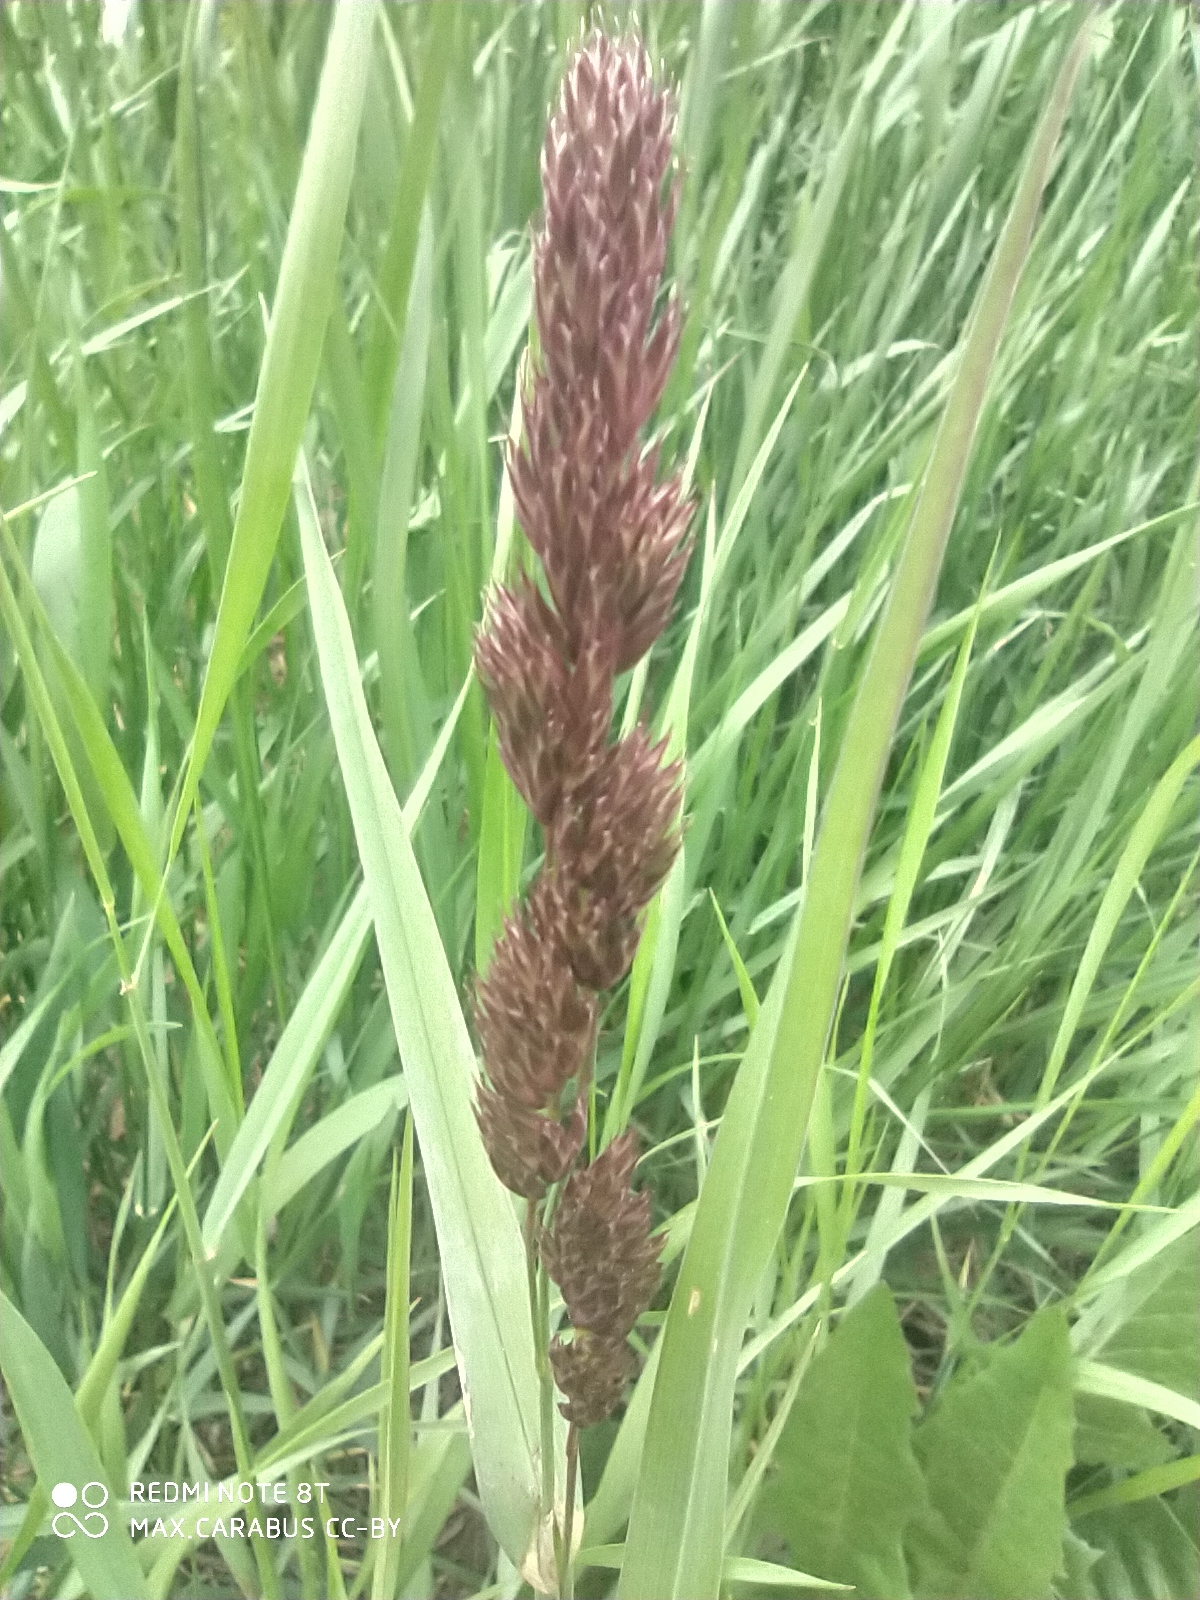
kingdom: Plantae
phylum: Tracheophyta
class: Liliopsida
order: Poales
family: Poaceae
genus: Dactylis
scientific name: Dactylis glomerata
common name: Orchardgrass
